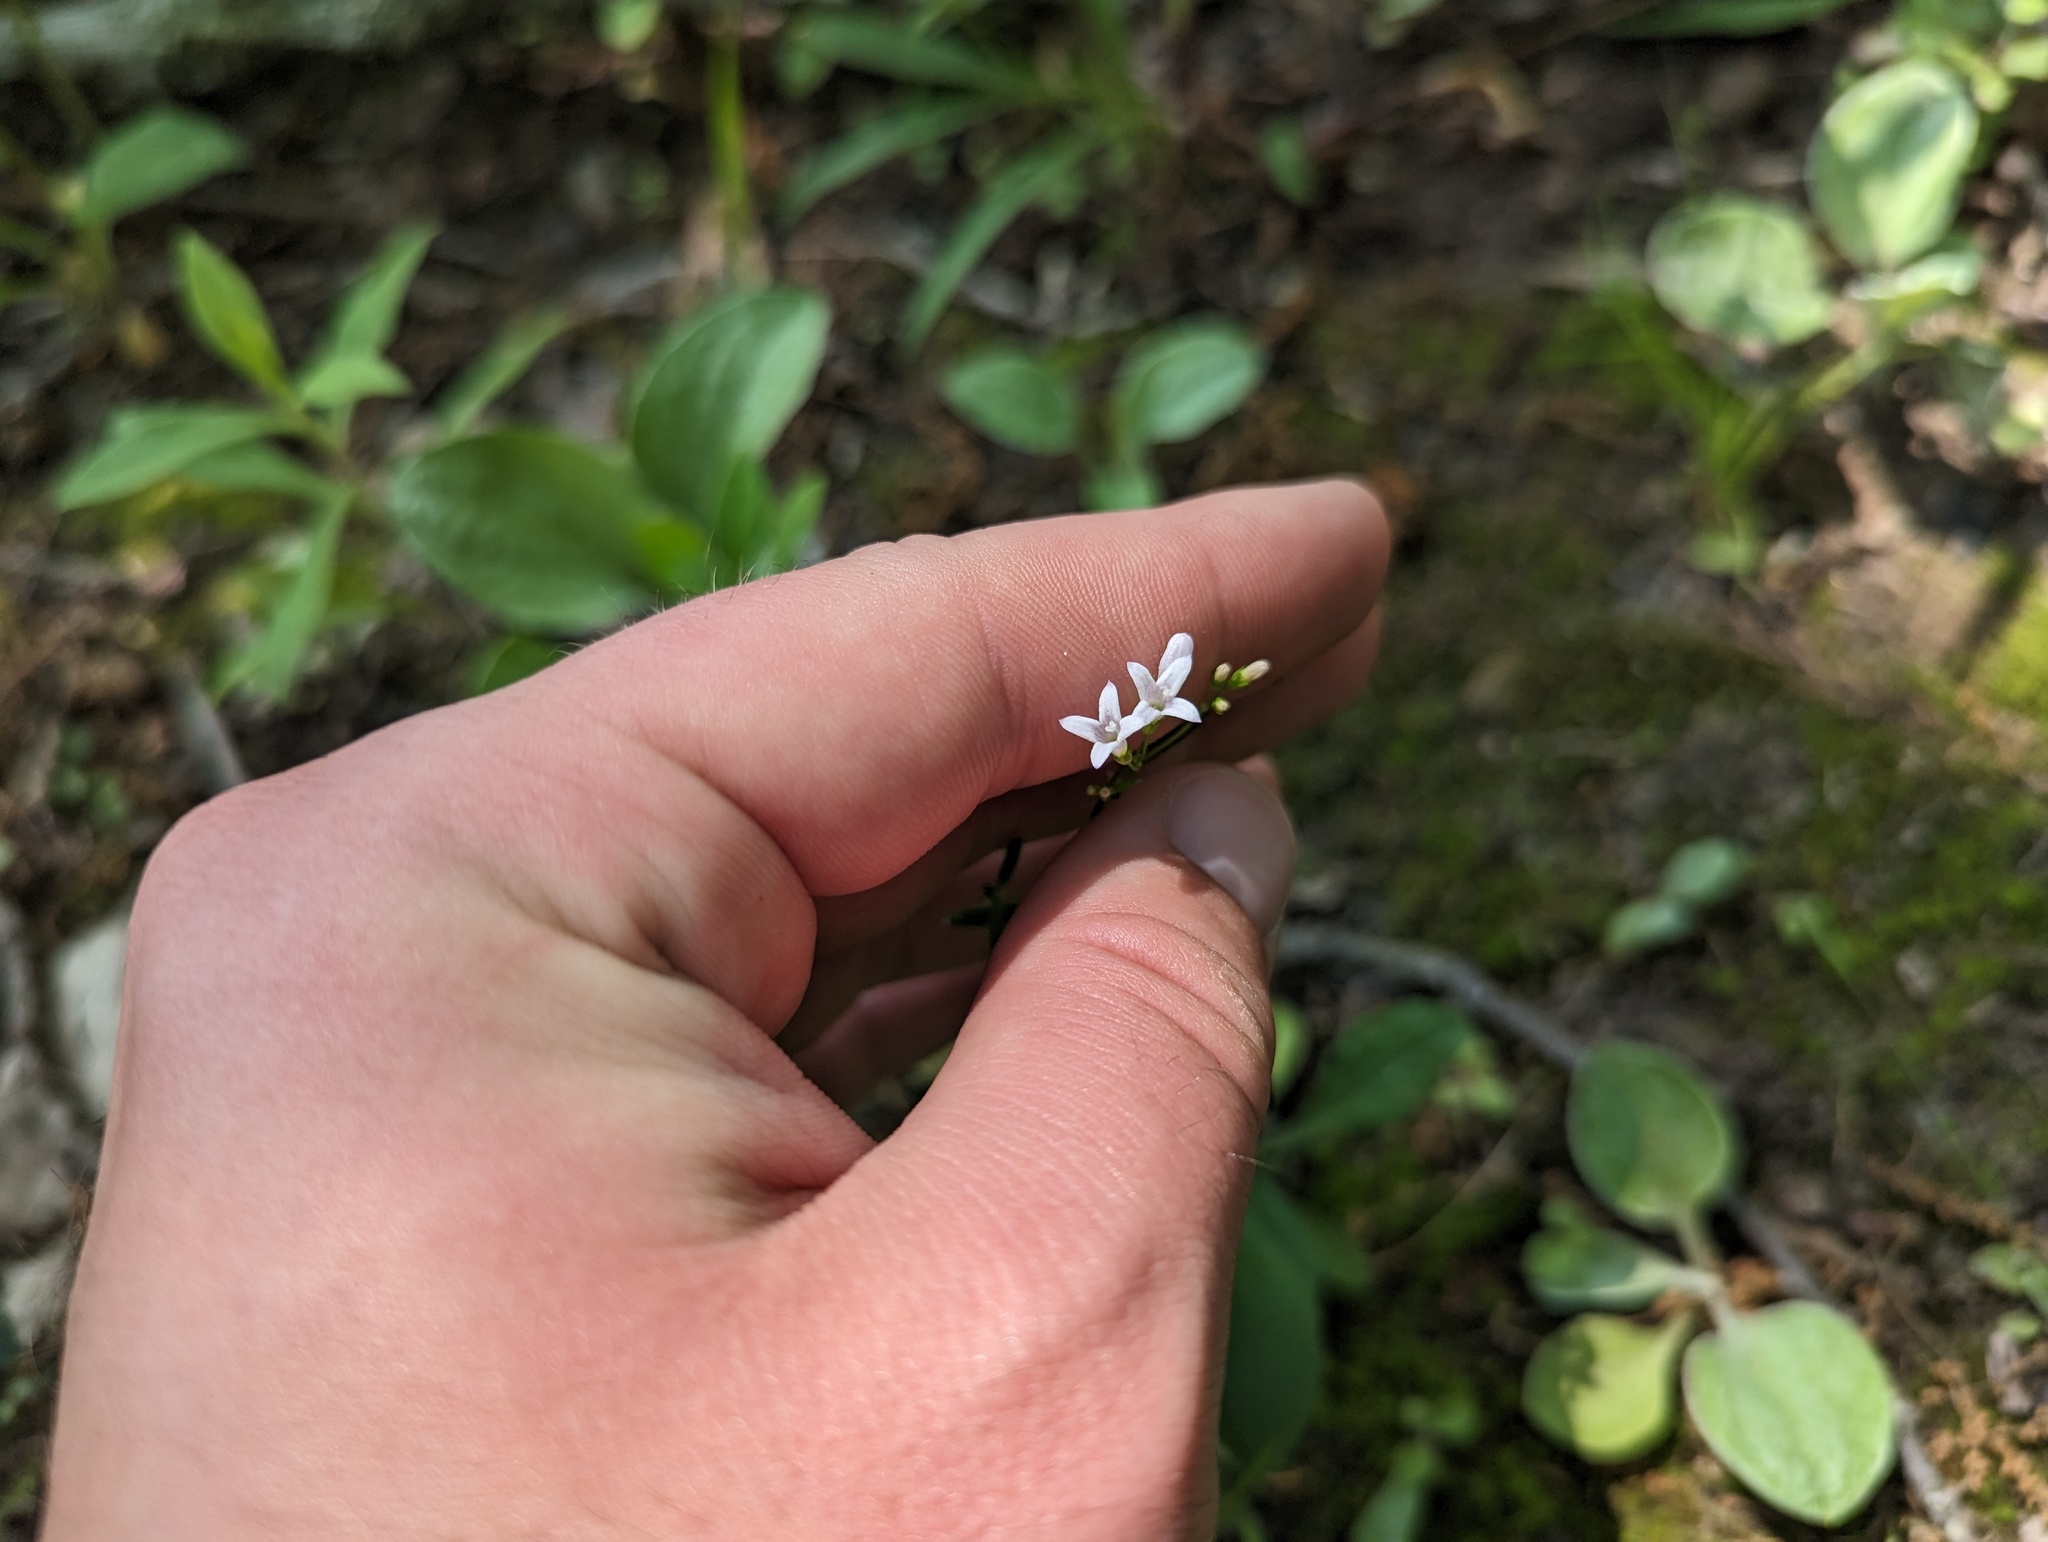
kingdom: Plantae
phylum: Tracheophyta
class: Magnoliopsida
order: Gentianales
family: Rubiaceae
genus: Houstonia
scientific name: Houstonia longifolia
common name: Long-leaved bluets
